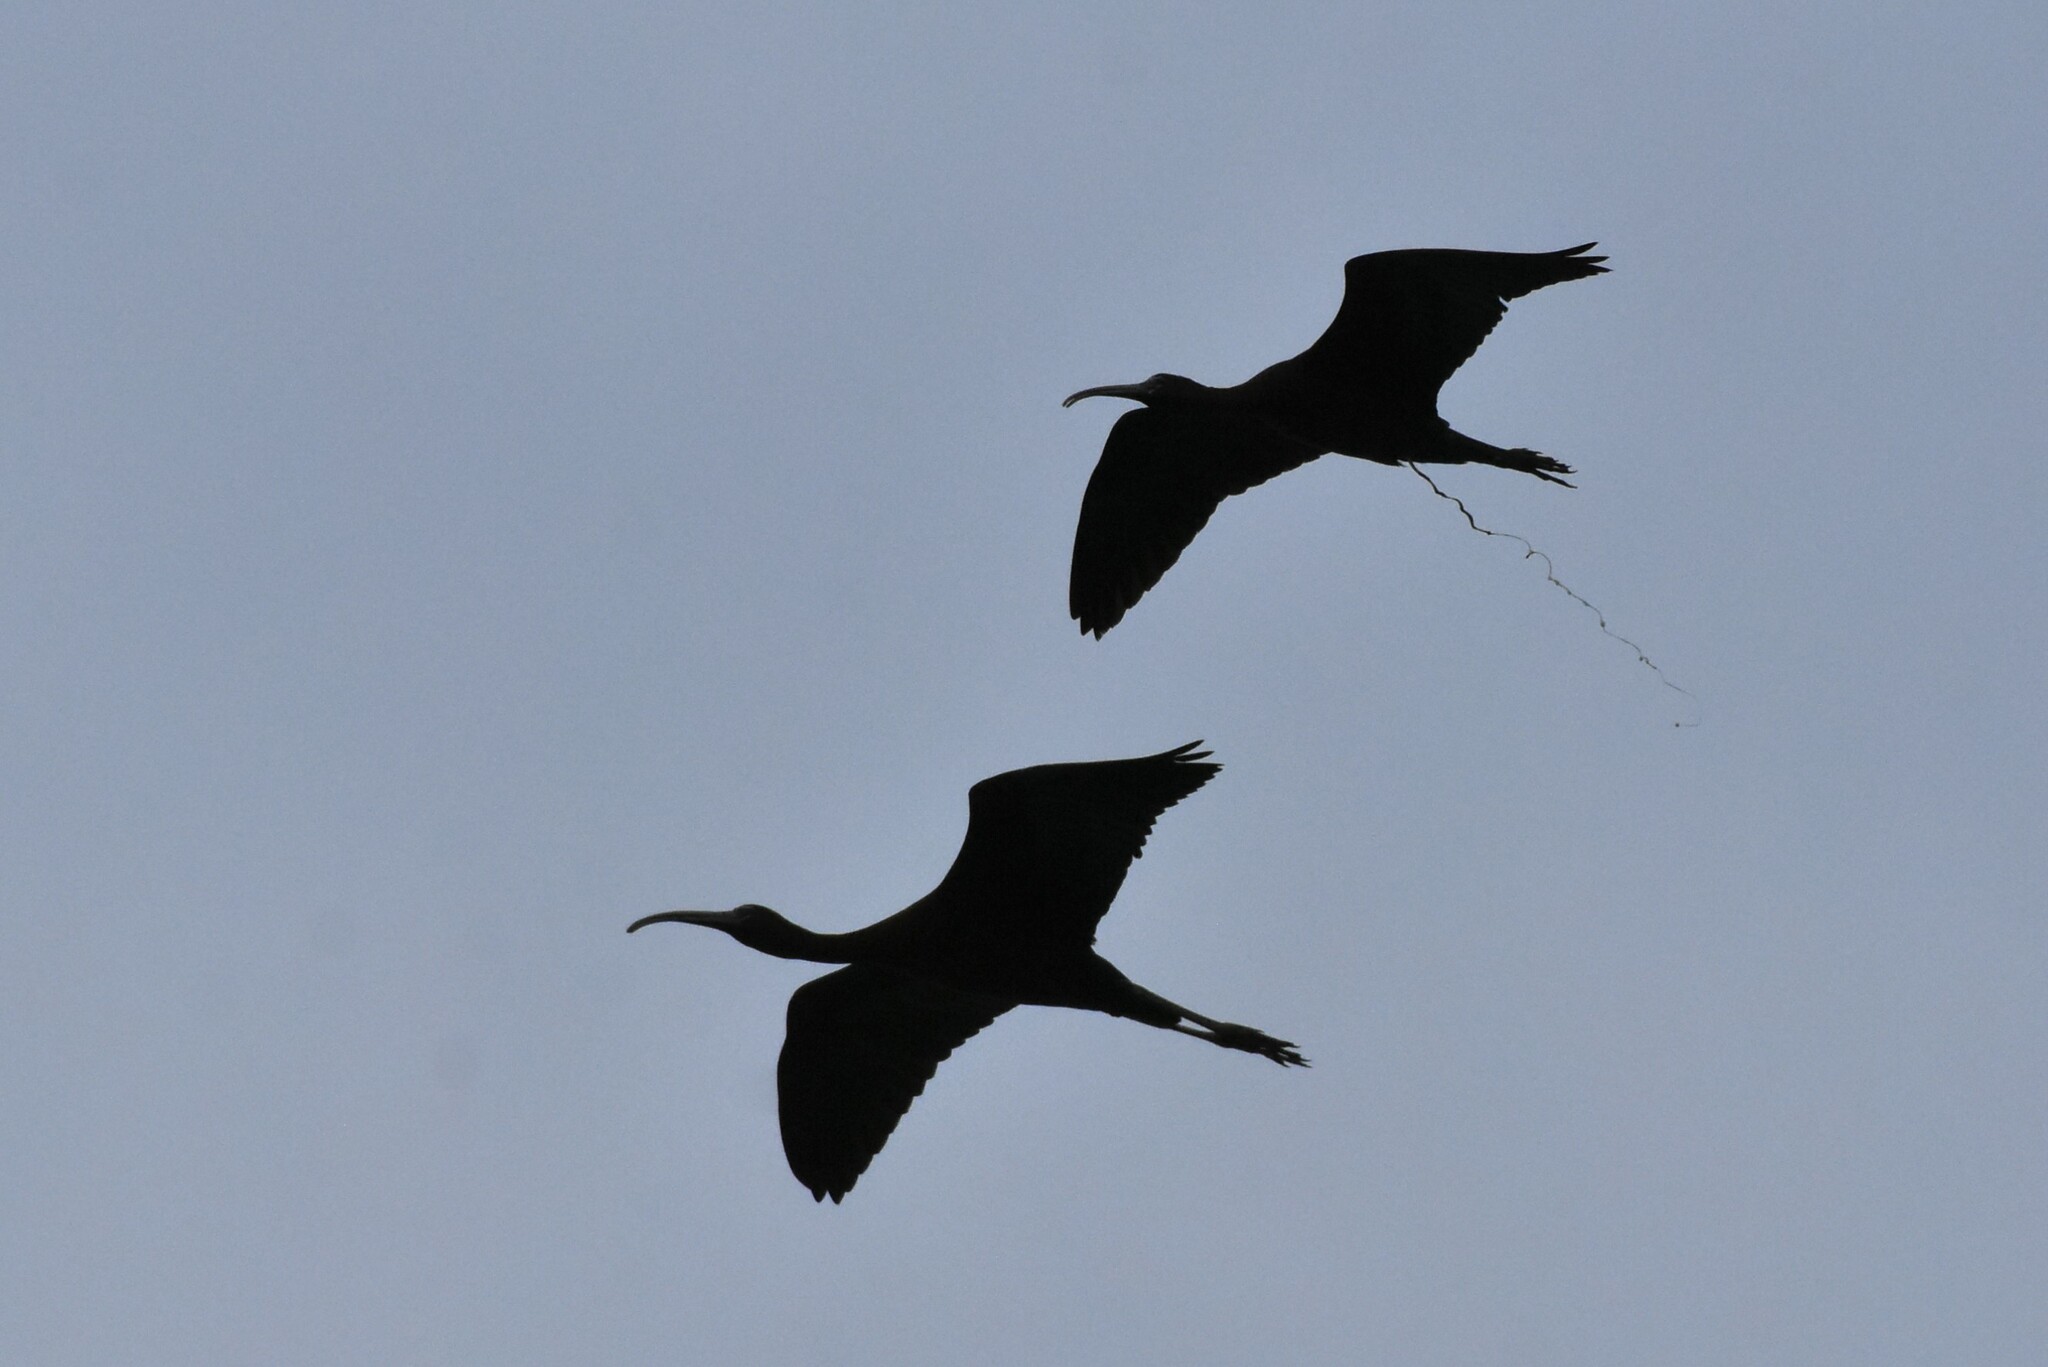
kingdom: Animalia
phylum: Chordata
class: Aves
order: Pelecaniformes
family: Threskiornithidae
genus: Plegadis
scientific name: Plegadis falcinellus
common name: Glossy ibis
